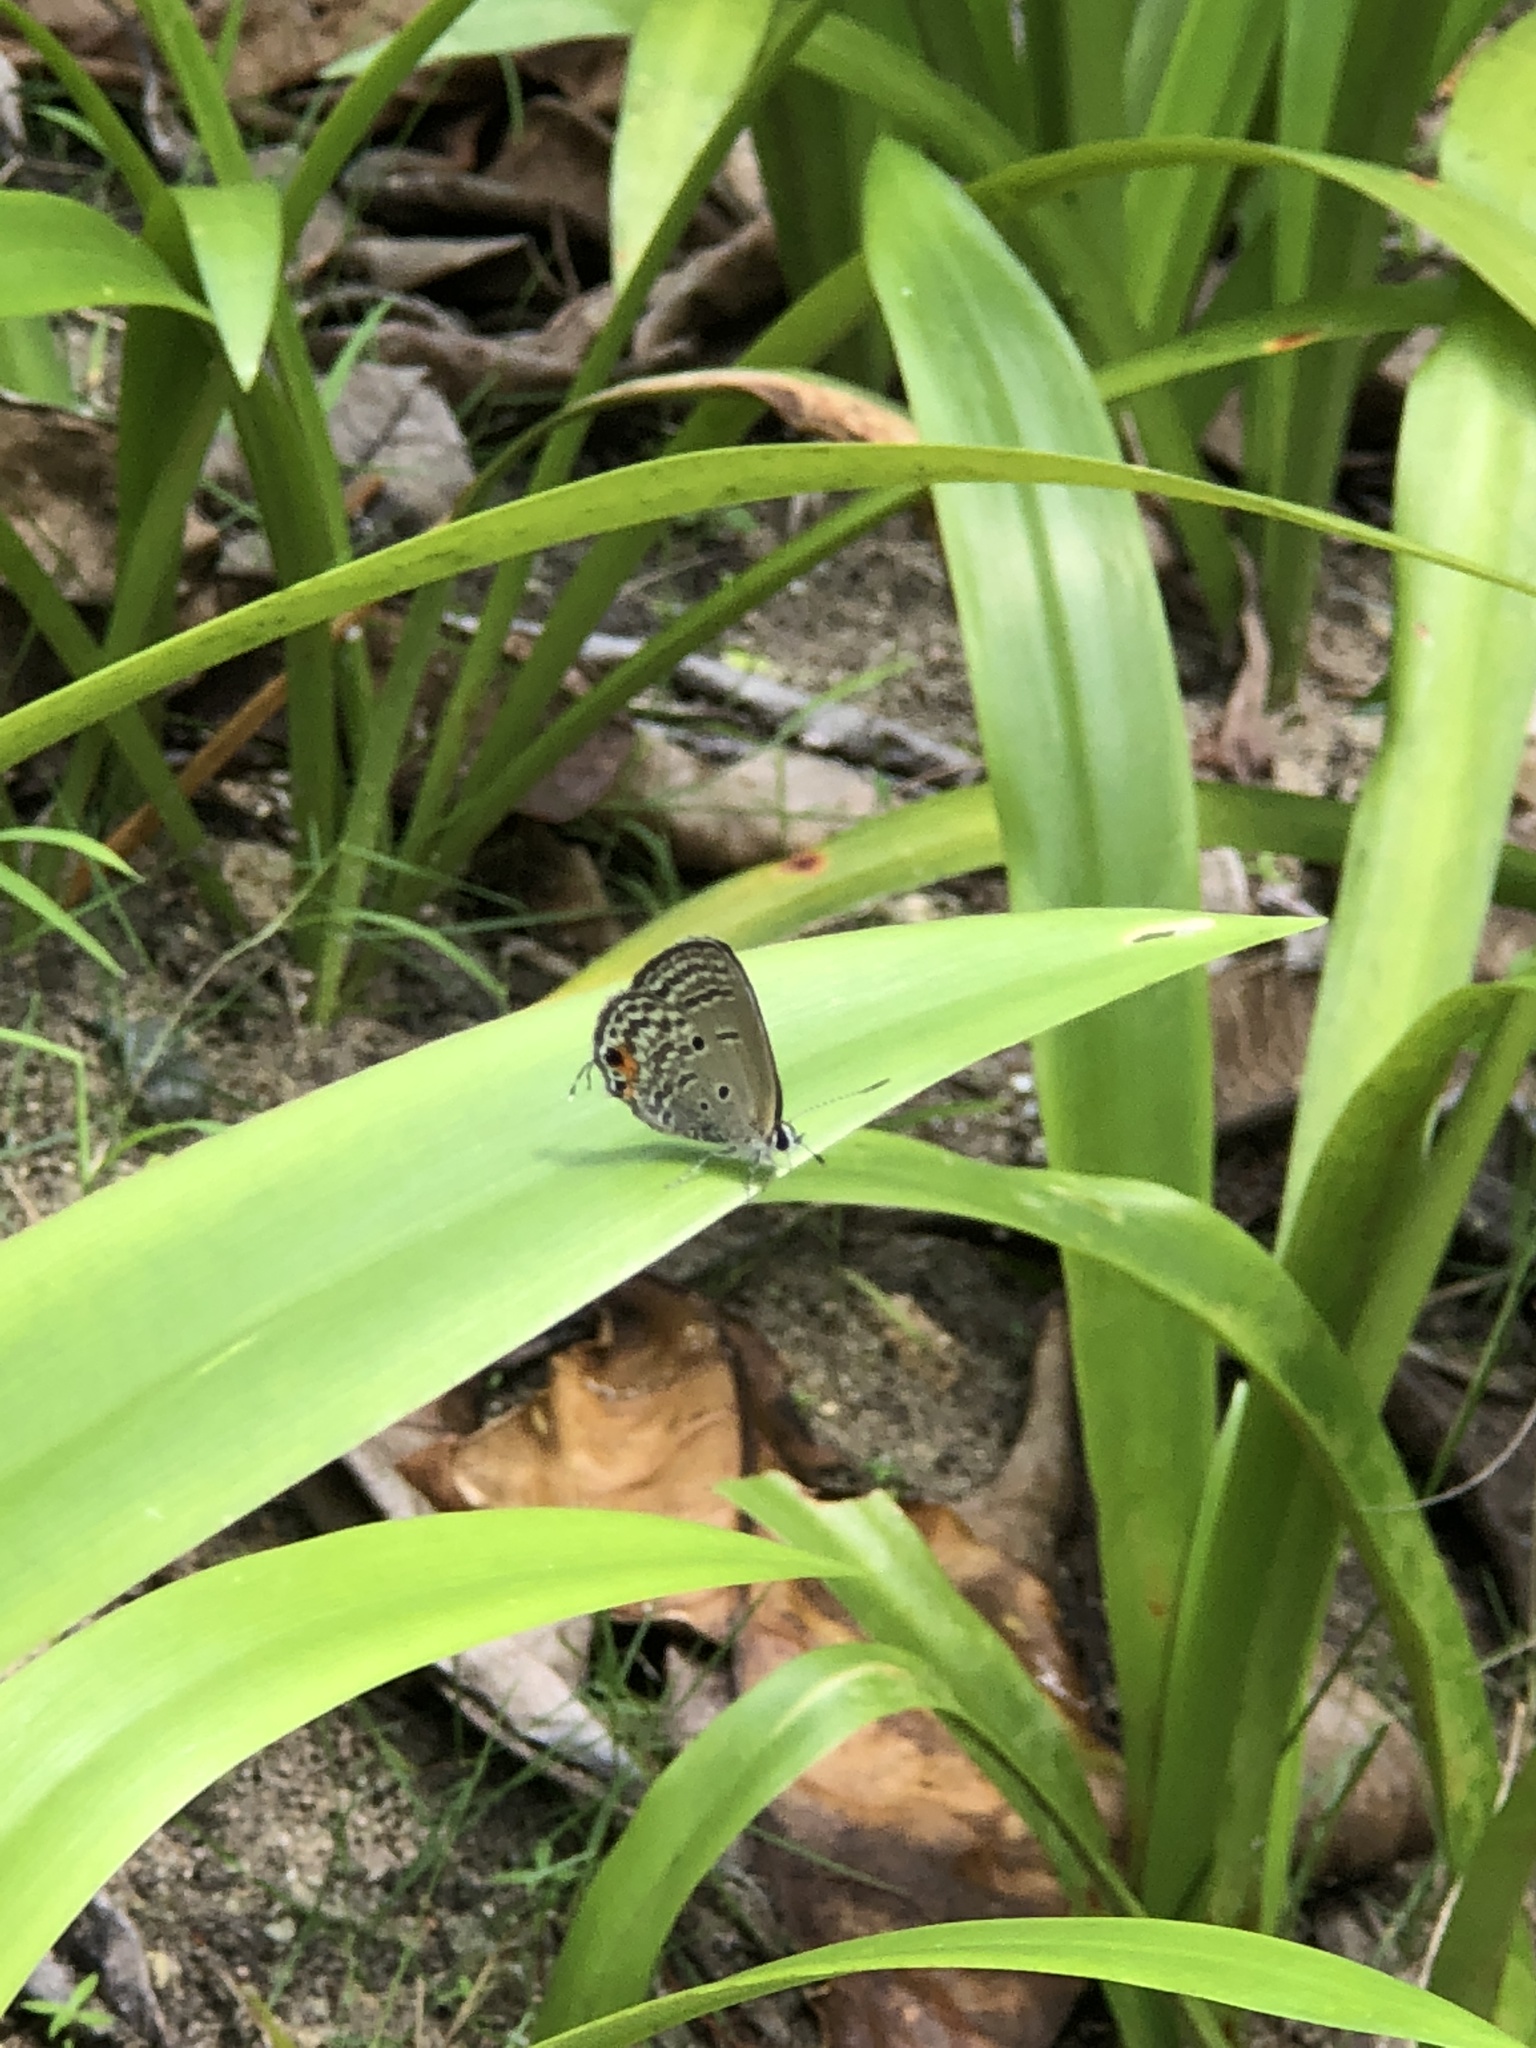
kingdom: Animalia
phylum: Arthropoda
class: Insecta
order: Lepidoptera
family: Lycaenidae
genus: Luthrodes
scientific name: Luthrodes pandava
